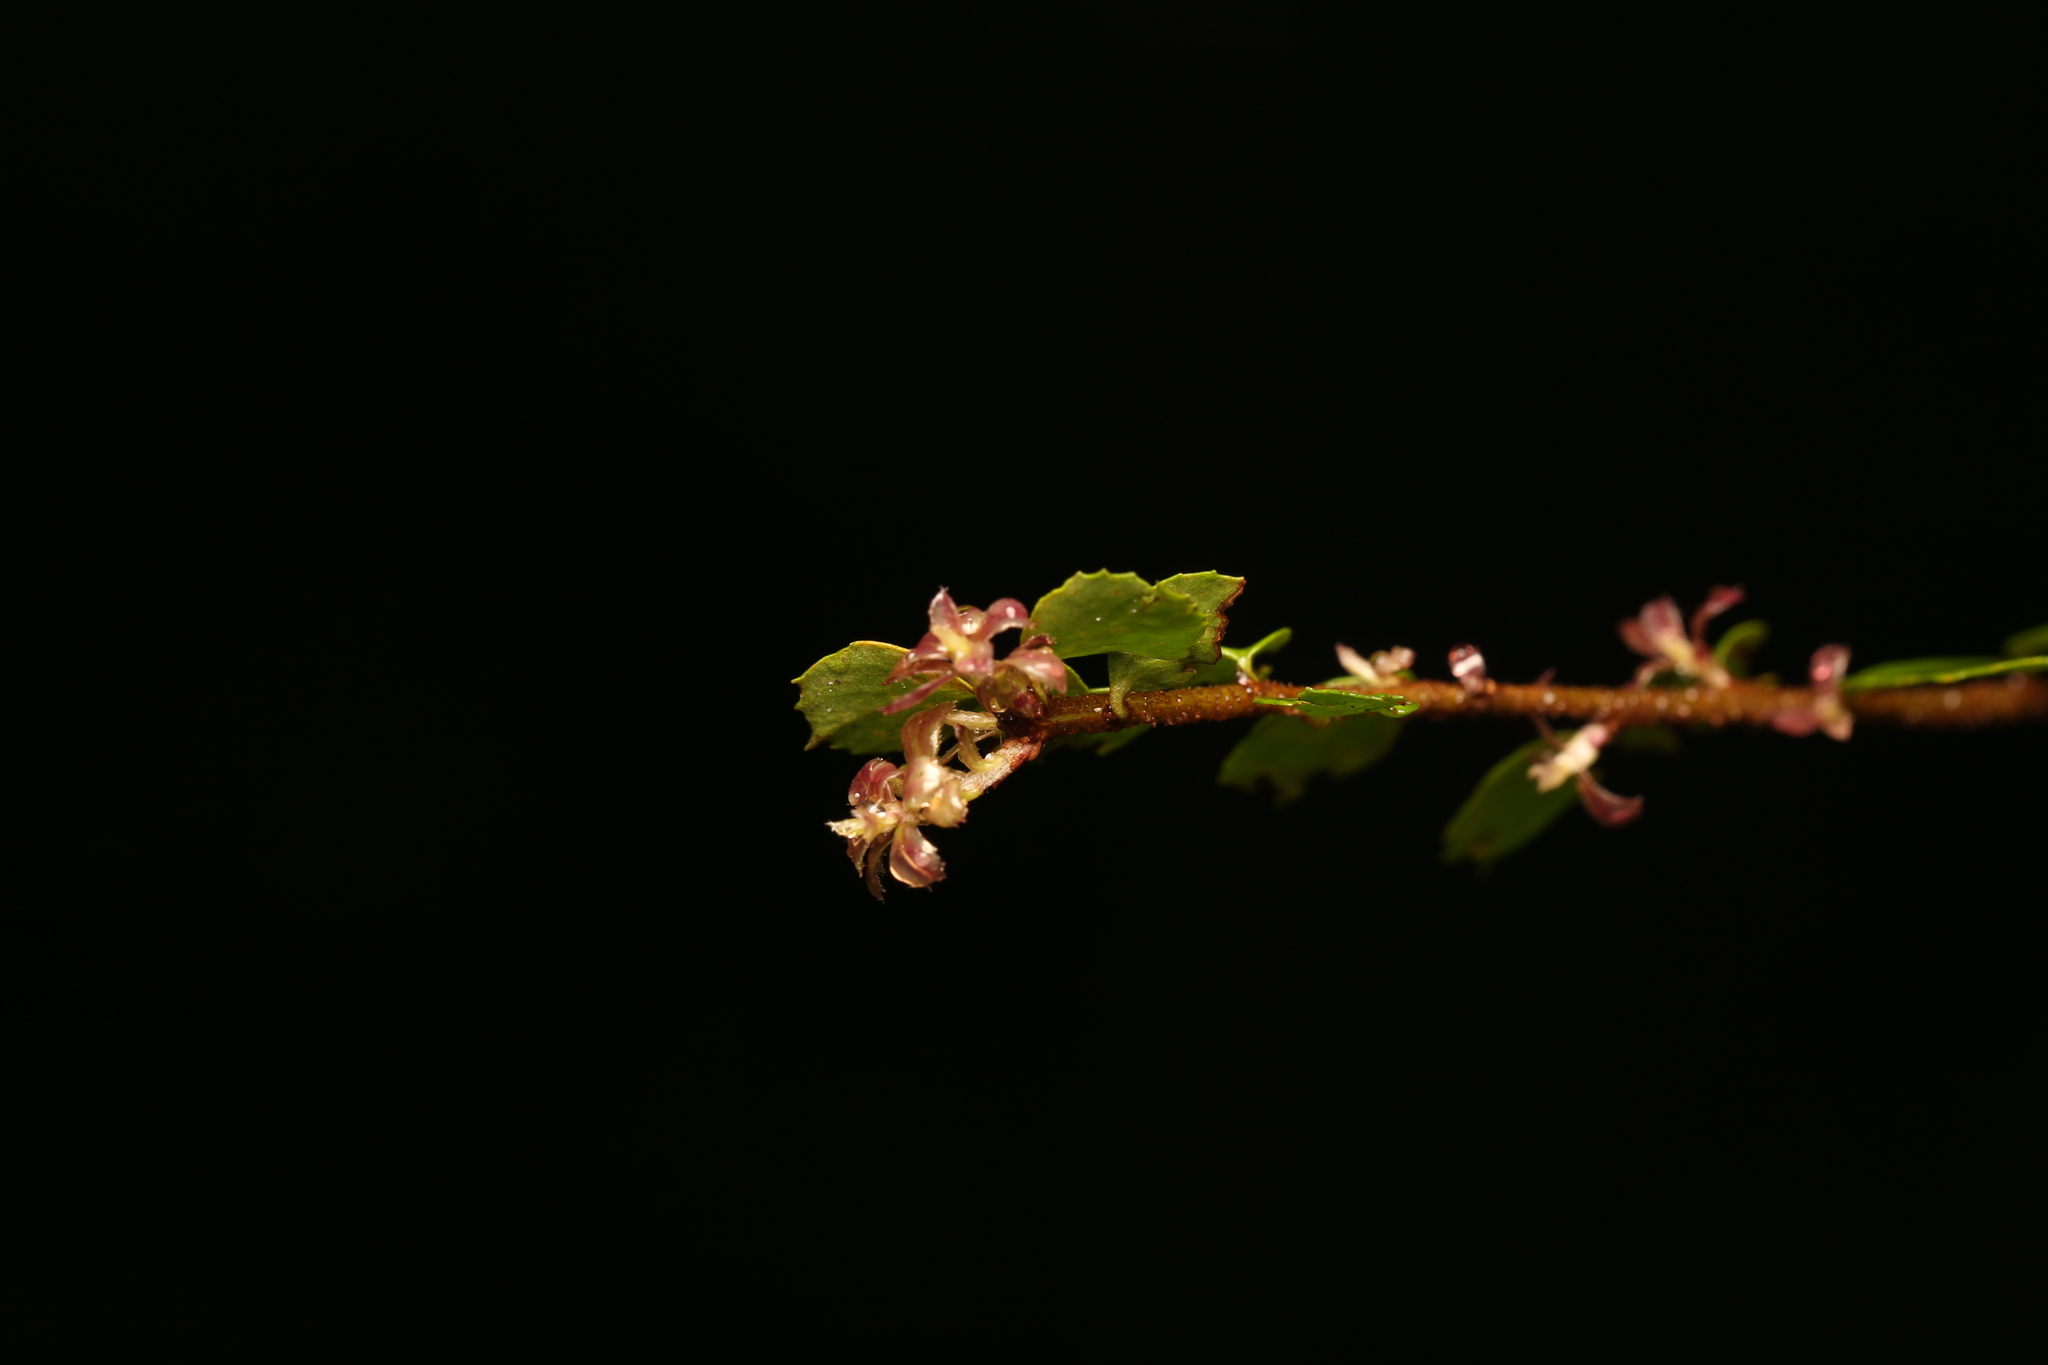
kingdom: Plantae
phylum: Tracheophyta
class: Magnoliopsida
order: Apiales
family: Pittosporaceae
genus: Pittosporum
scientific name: Pittosporum multiflorum
